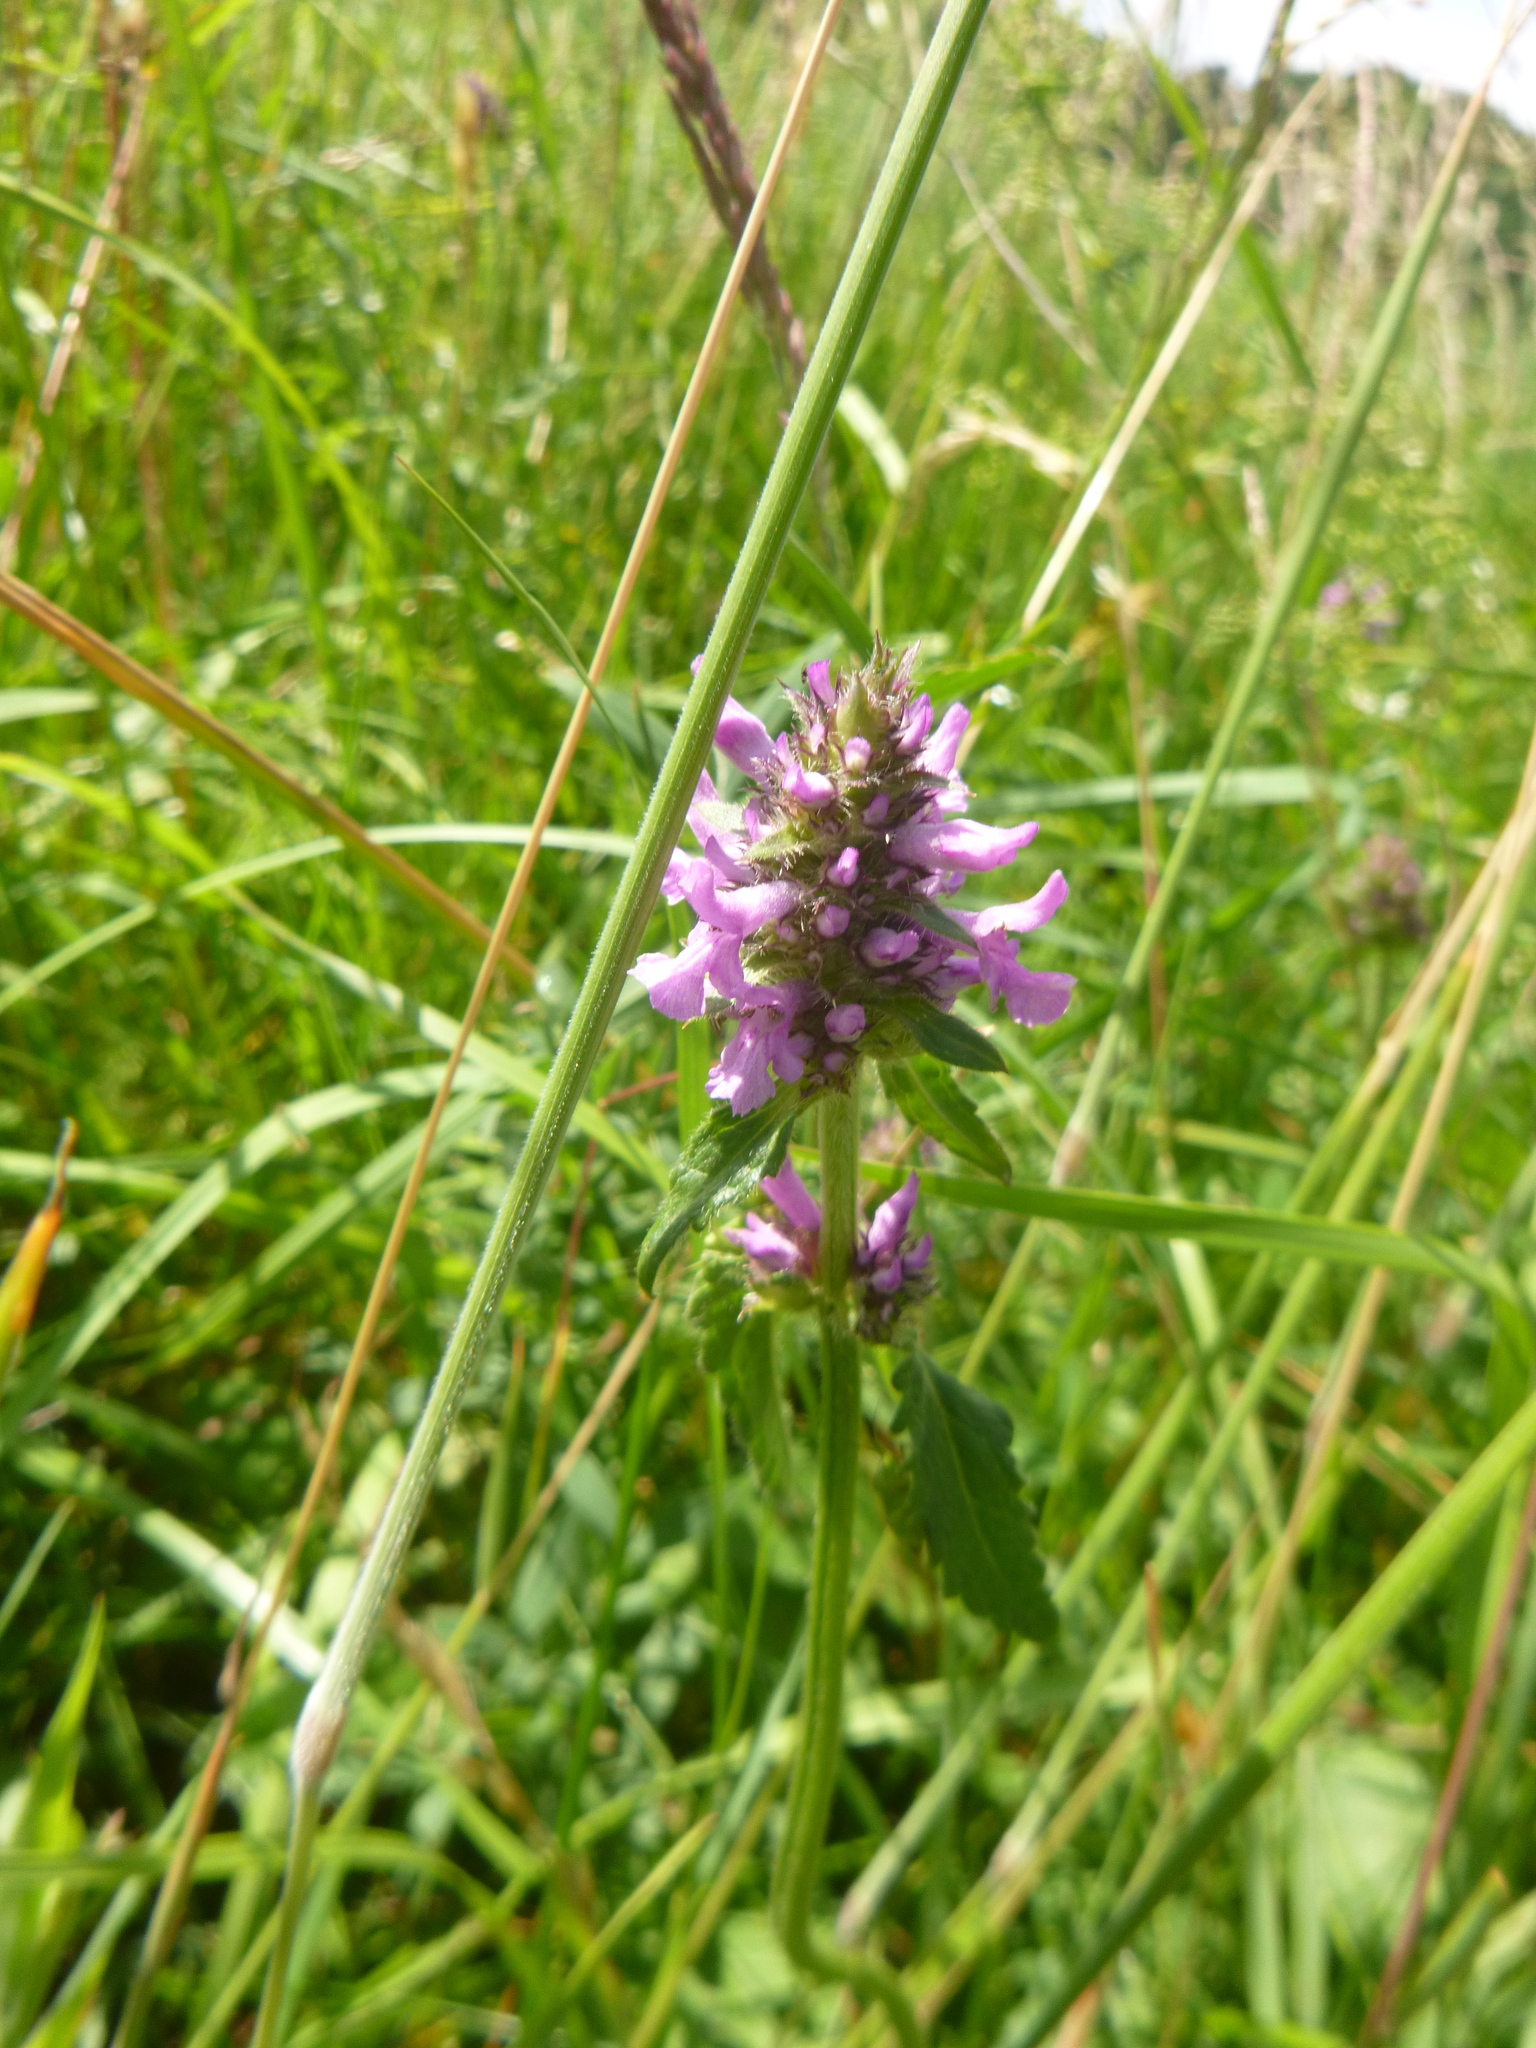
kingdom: Plantae
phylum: Tracheophyta
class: Magnoliopsida
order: Lamiales
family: Lamiaceae
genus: Betonica
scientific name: Betonica officinalis
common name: Bishop's-wort
